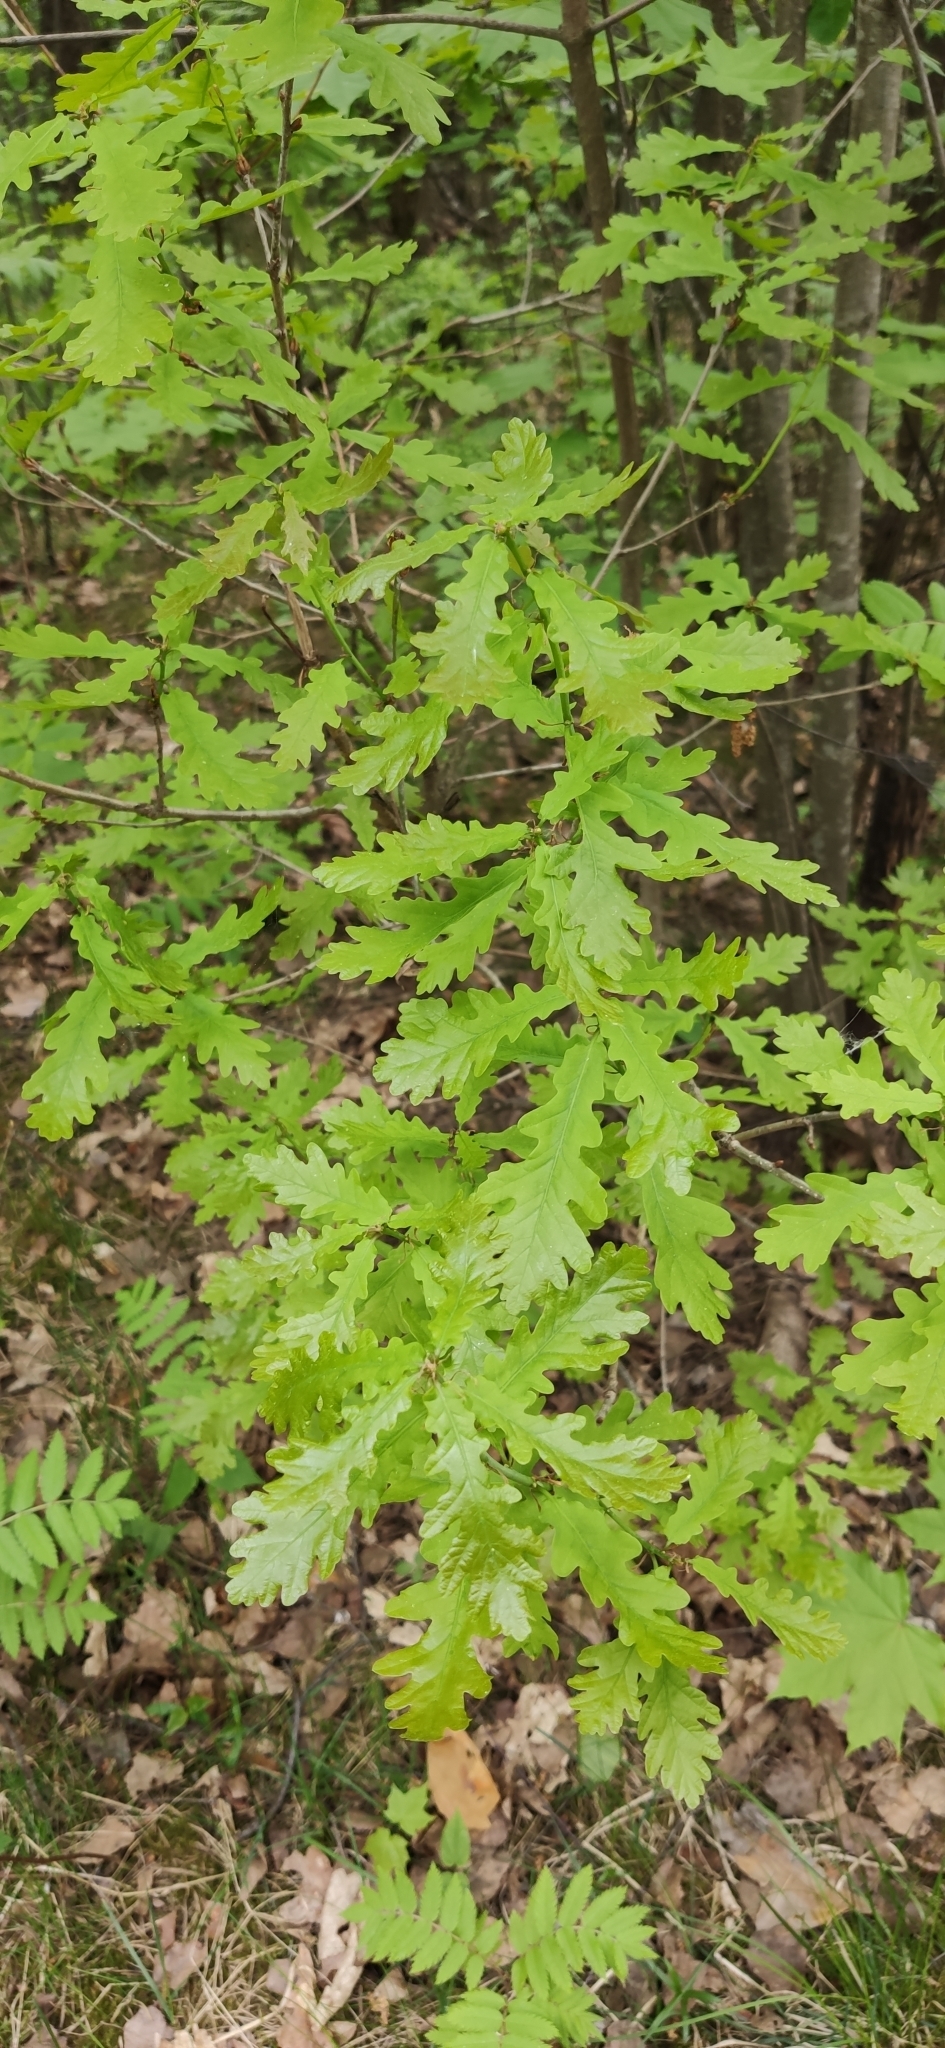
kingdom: Plantae
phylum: Tracheophyta
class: Magnoliopsida
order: Fagales
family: Fagaceae
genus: Quercus
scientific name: Quercus robur
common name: Pedunculate oak
